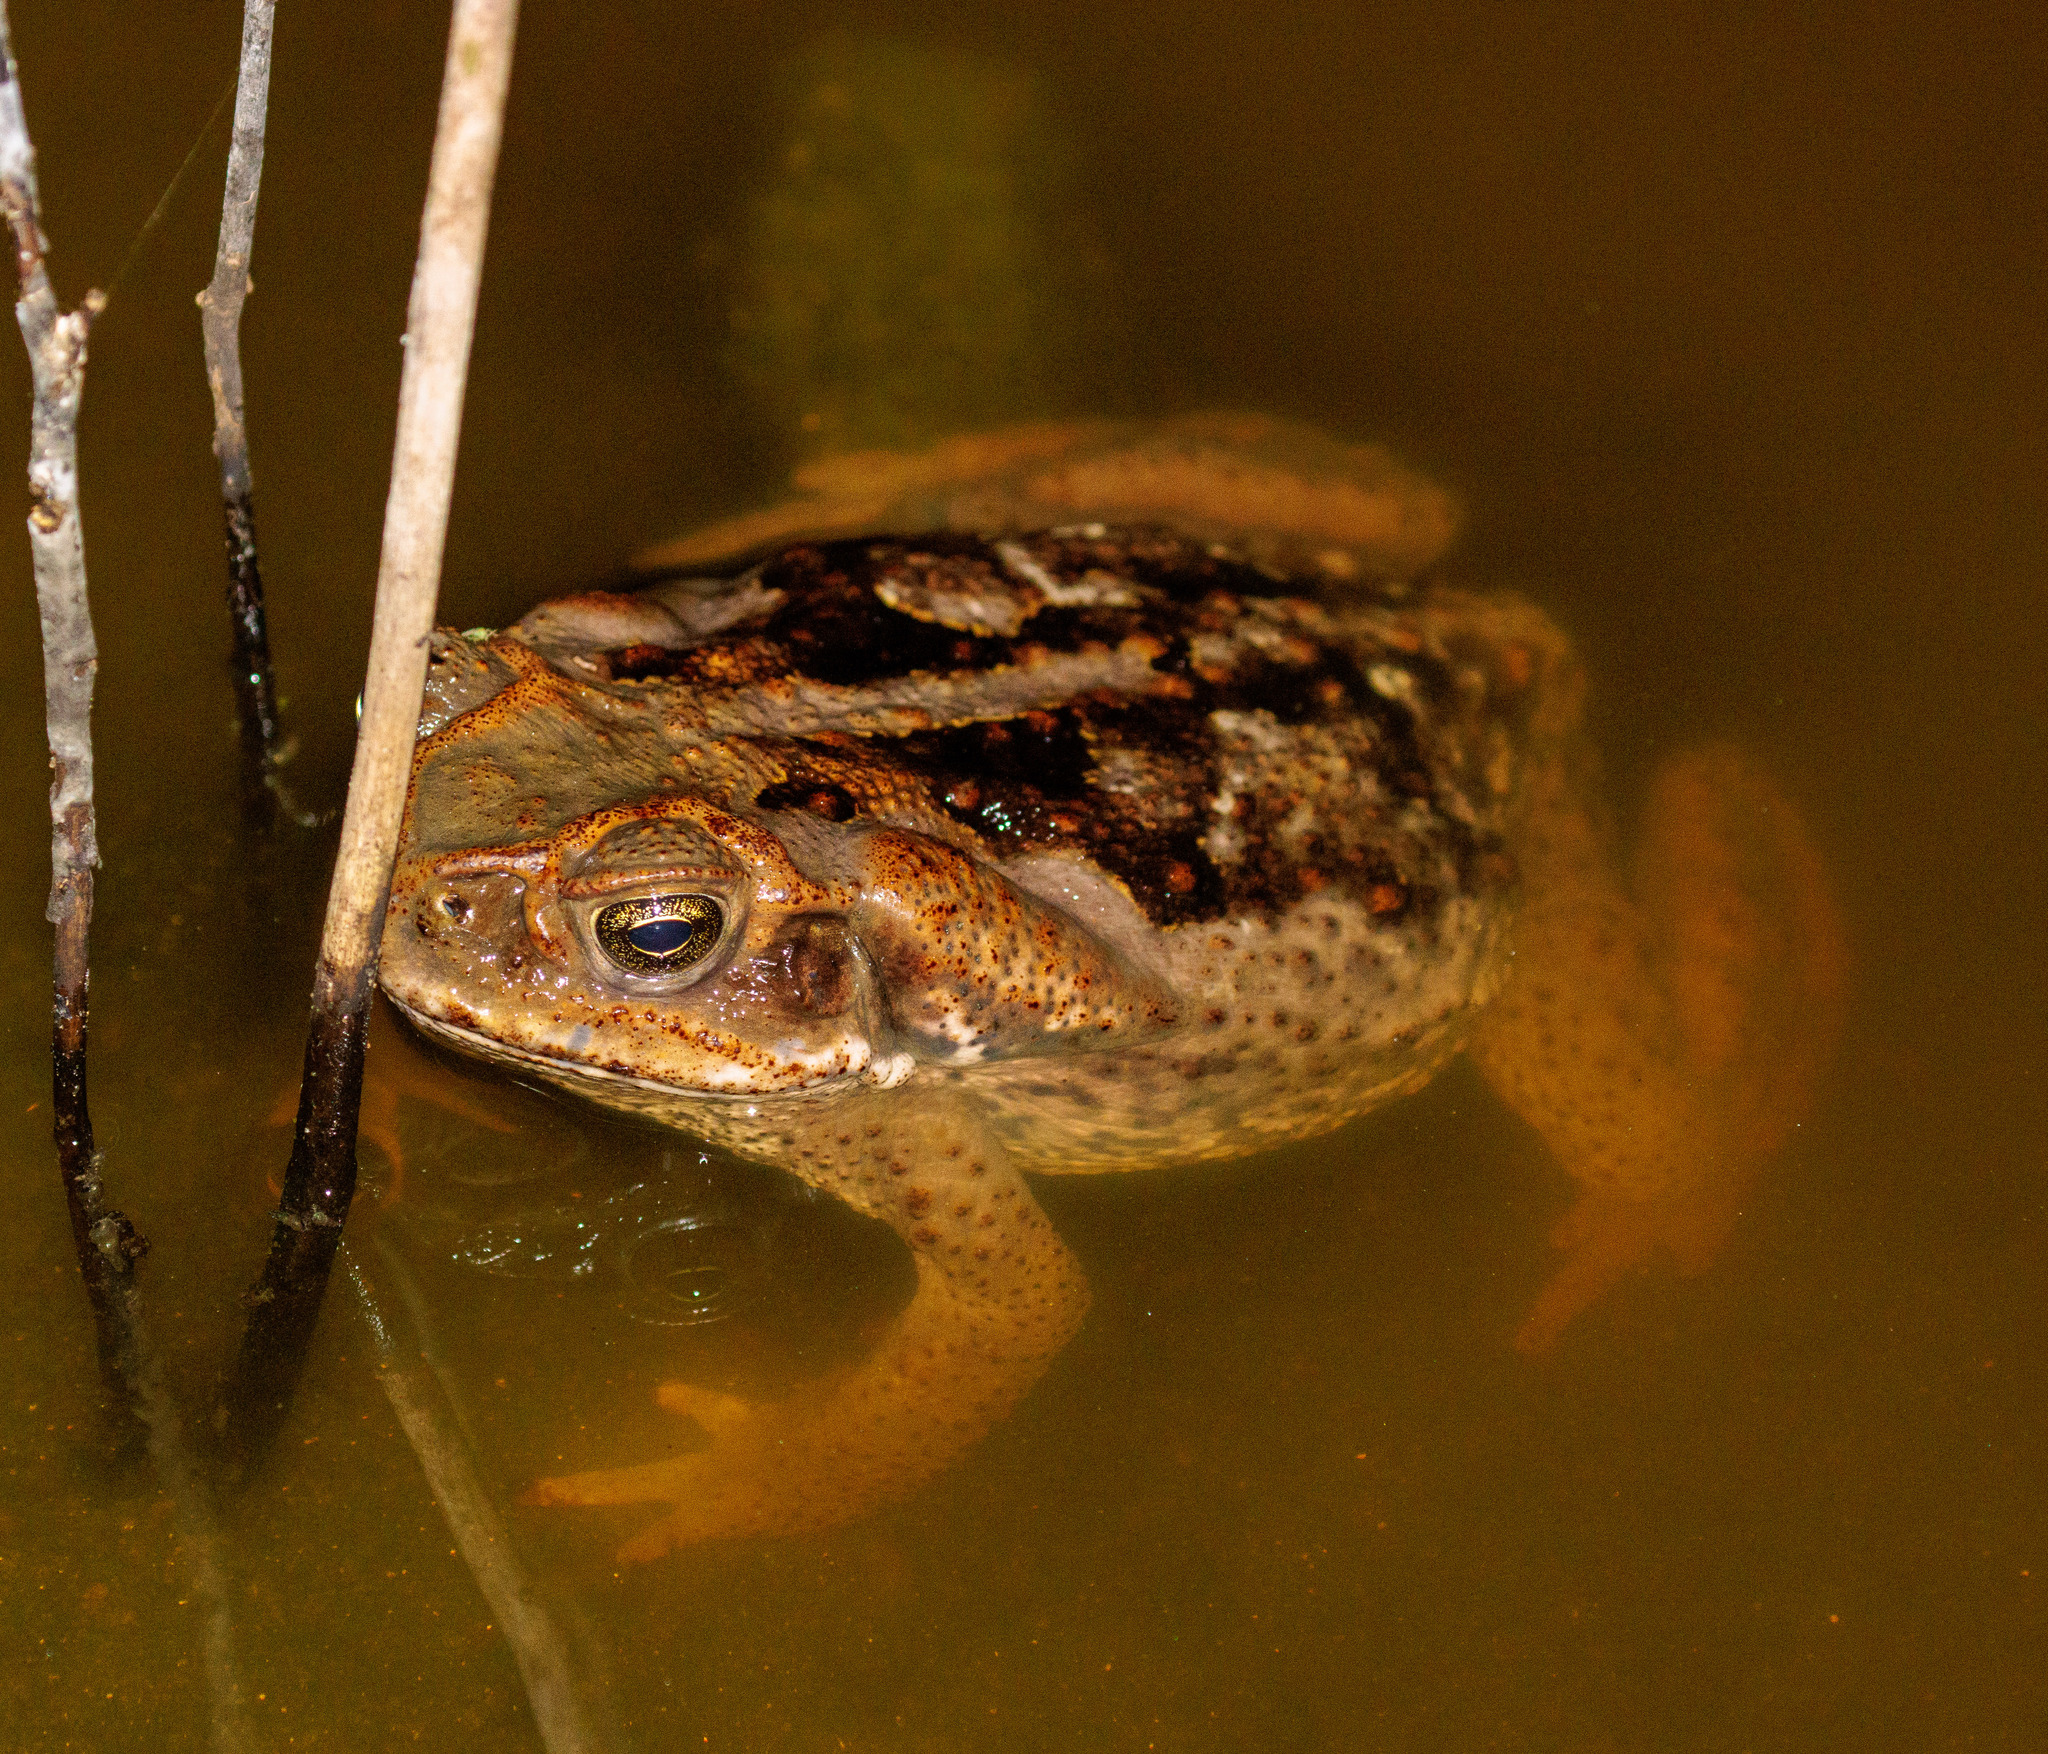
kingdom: Animalia
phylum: Chordata
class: Amphibia
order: Anura
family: Bufonidae
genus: Rhinella
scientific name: Rhinella diptycha
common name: Cope's toad
